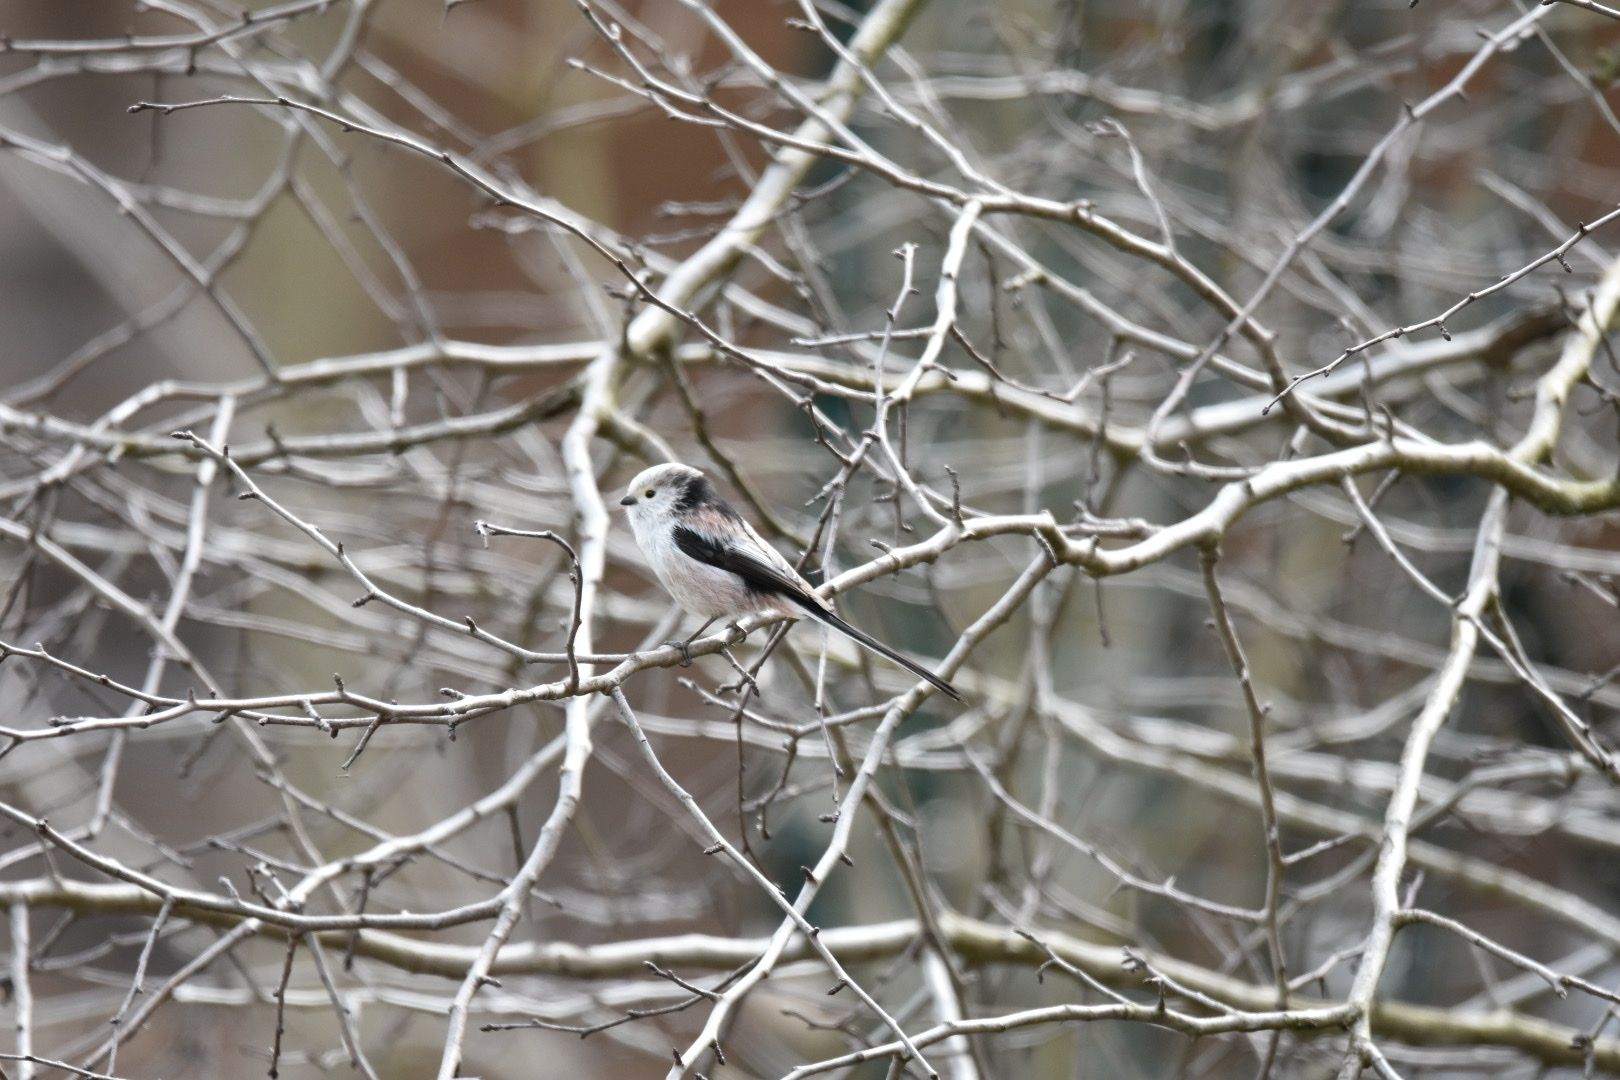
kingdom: Animalia
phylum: Chordata
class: Aves
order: Passeriformes
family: Aegithalidae
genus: Aegithalos
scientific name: Aegithalos caudatus
